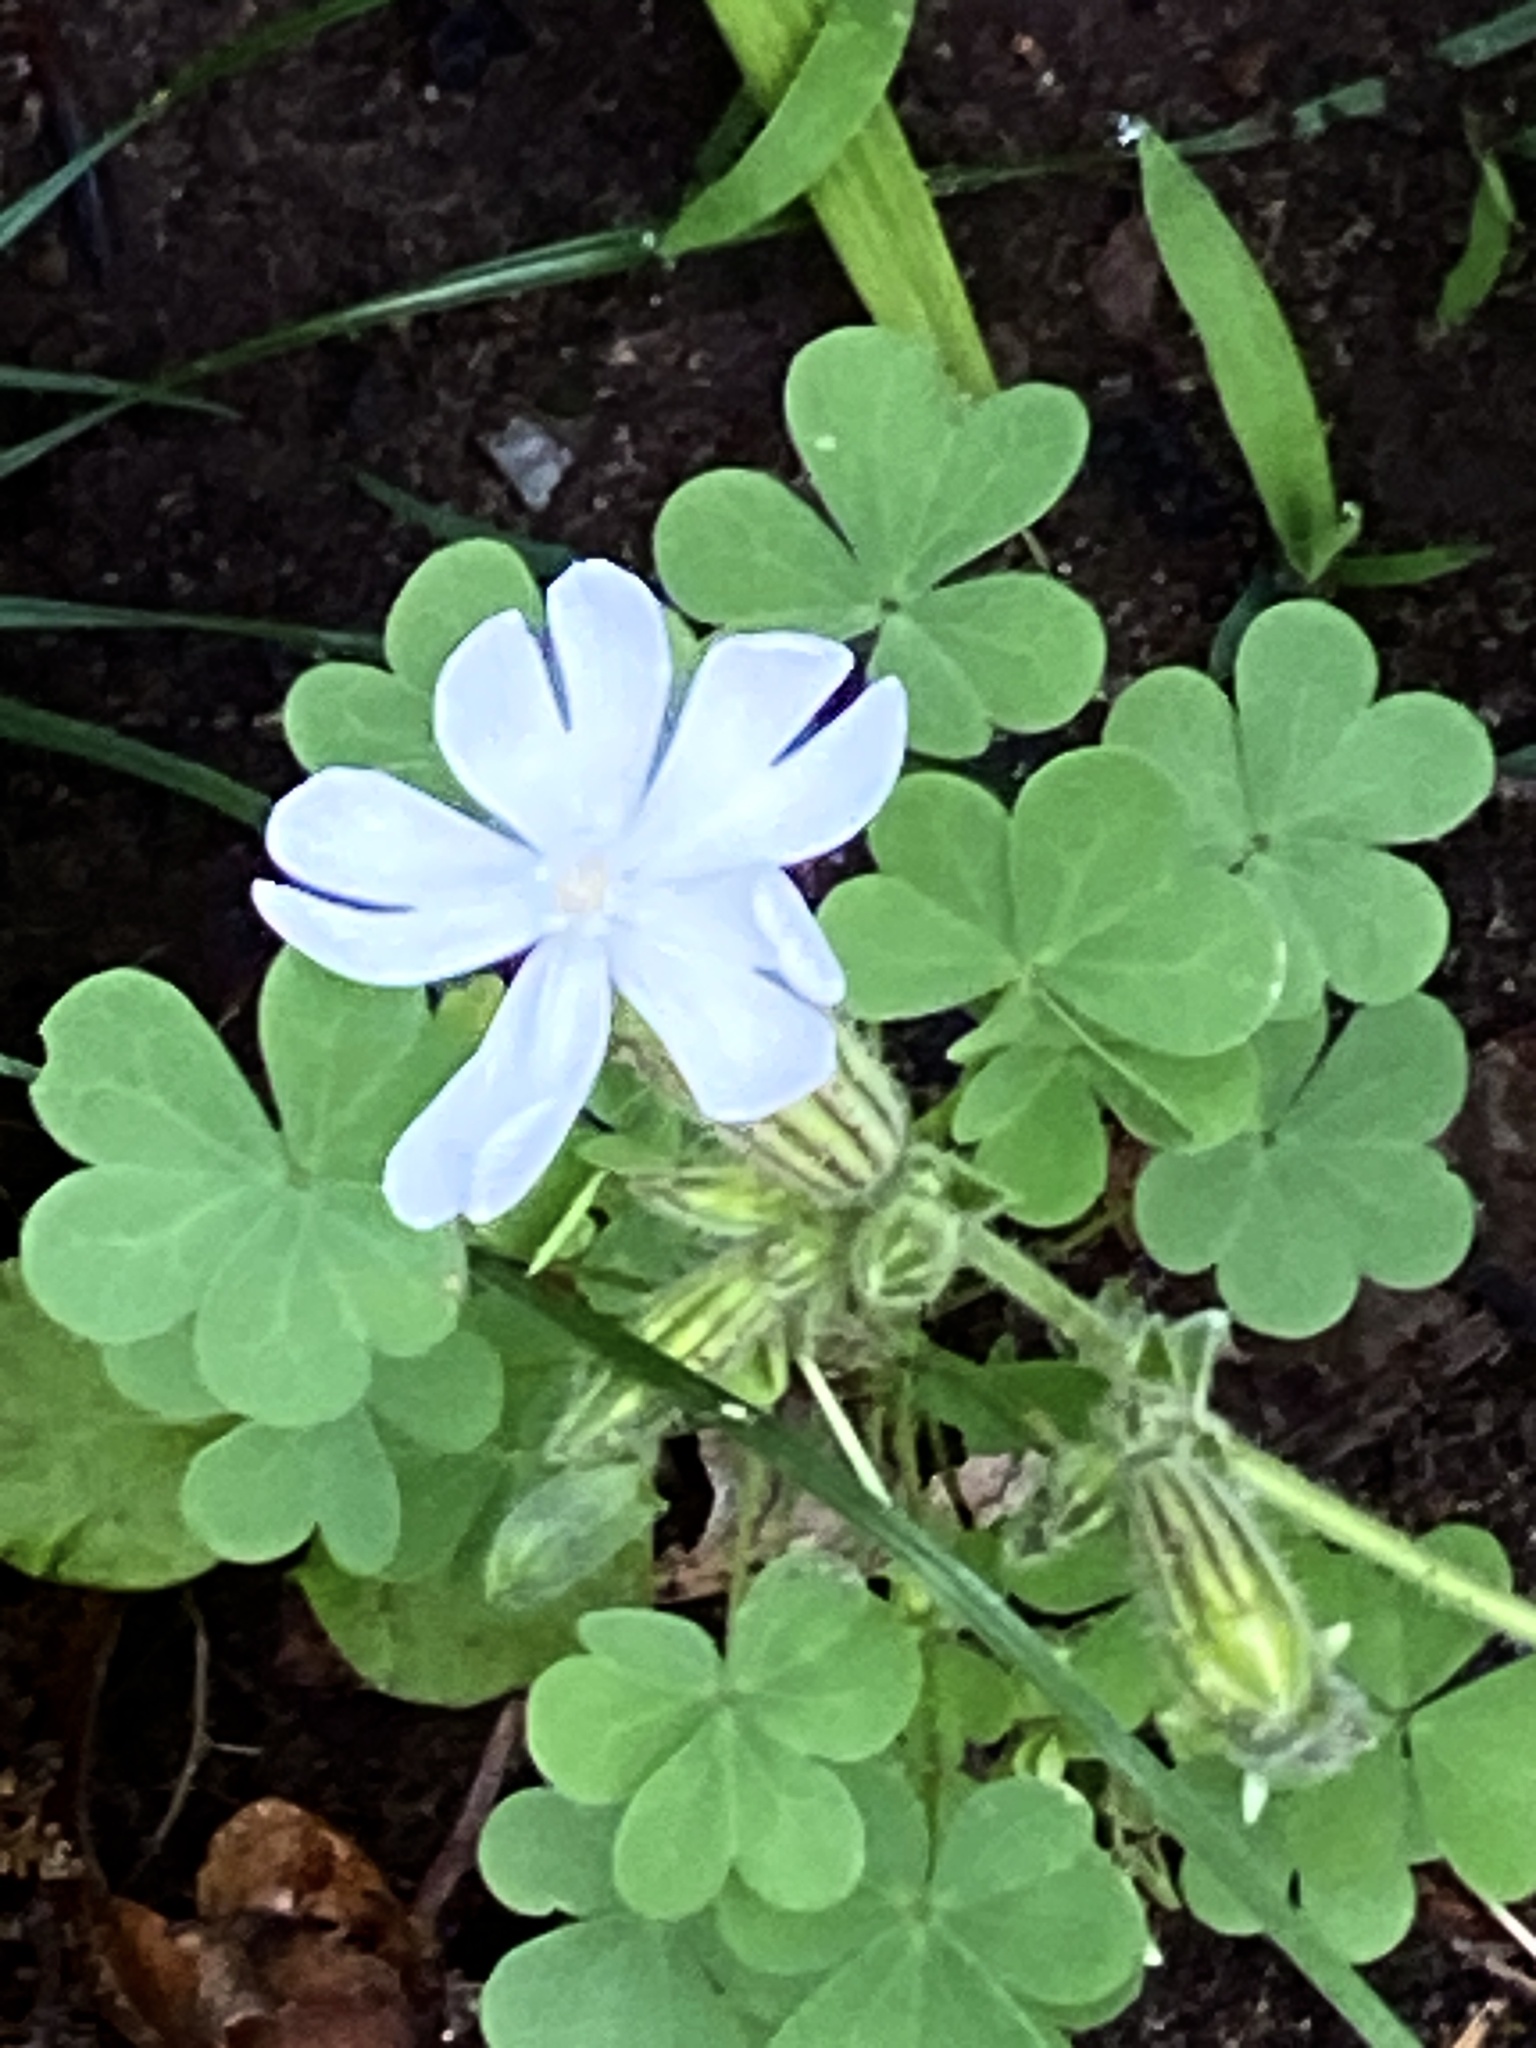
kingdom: Plantae
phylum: Tracheophyta
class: Magnoliopsida
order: Caryophyllales
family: Caryophyllaceae
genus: Silene
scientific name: Silene latifolia
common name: White campion
